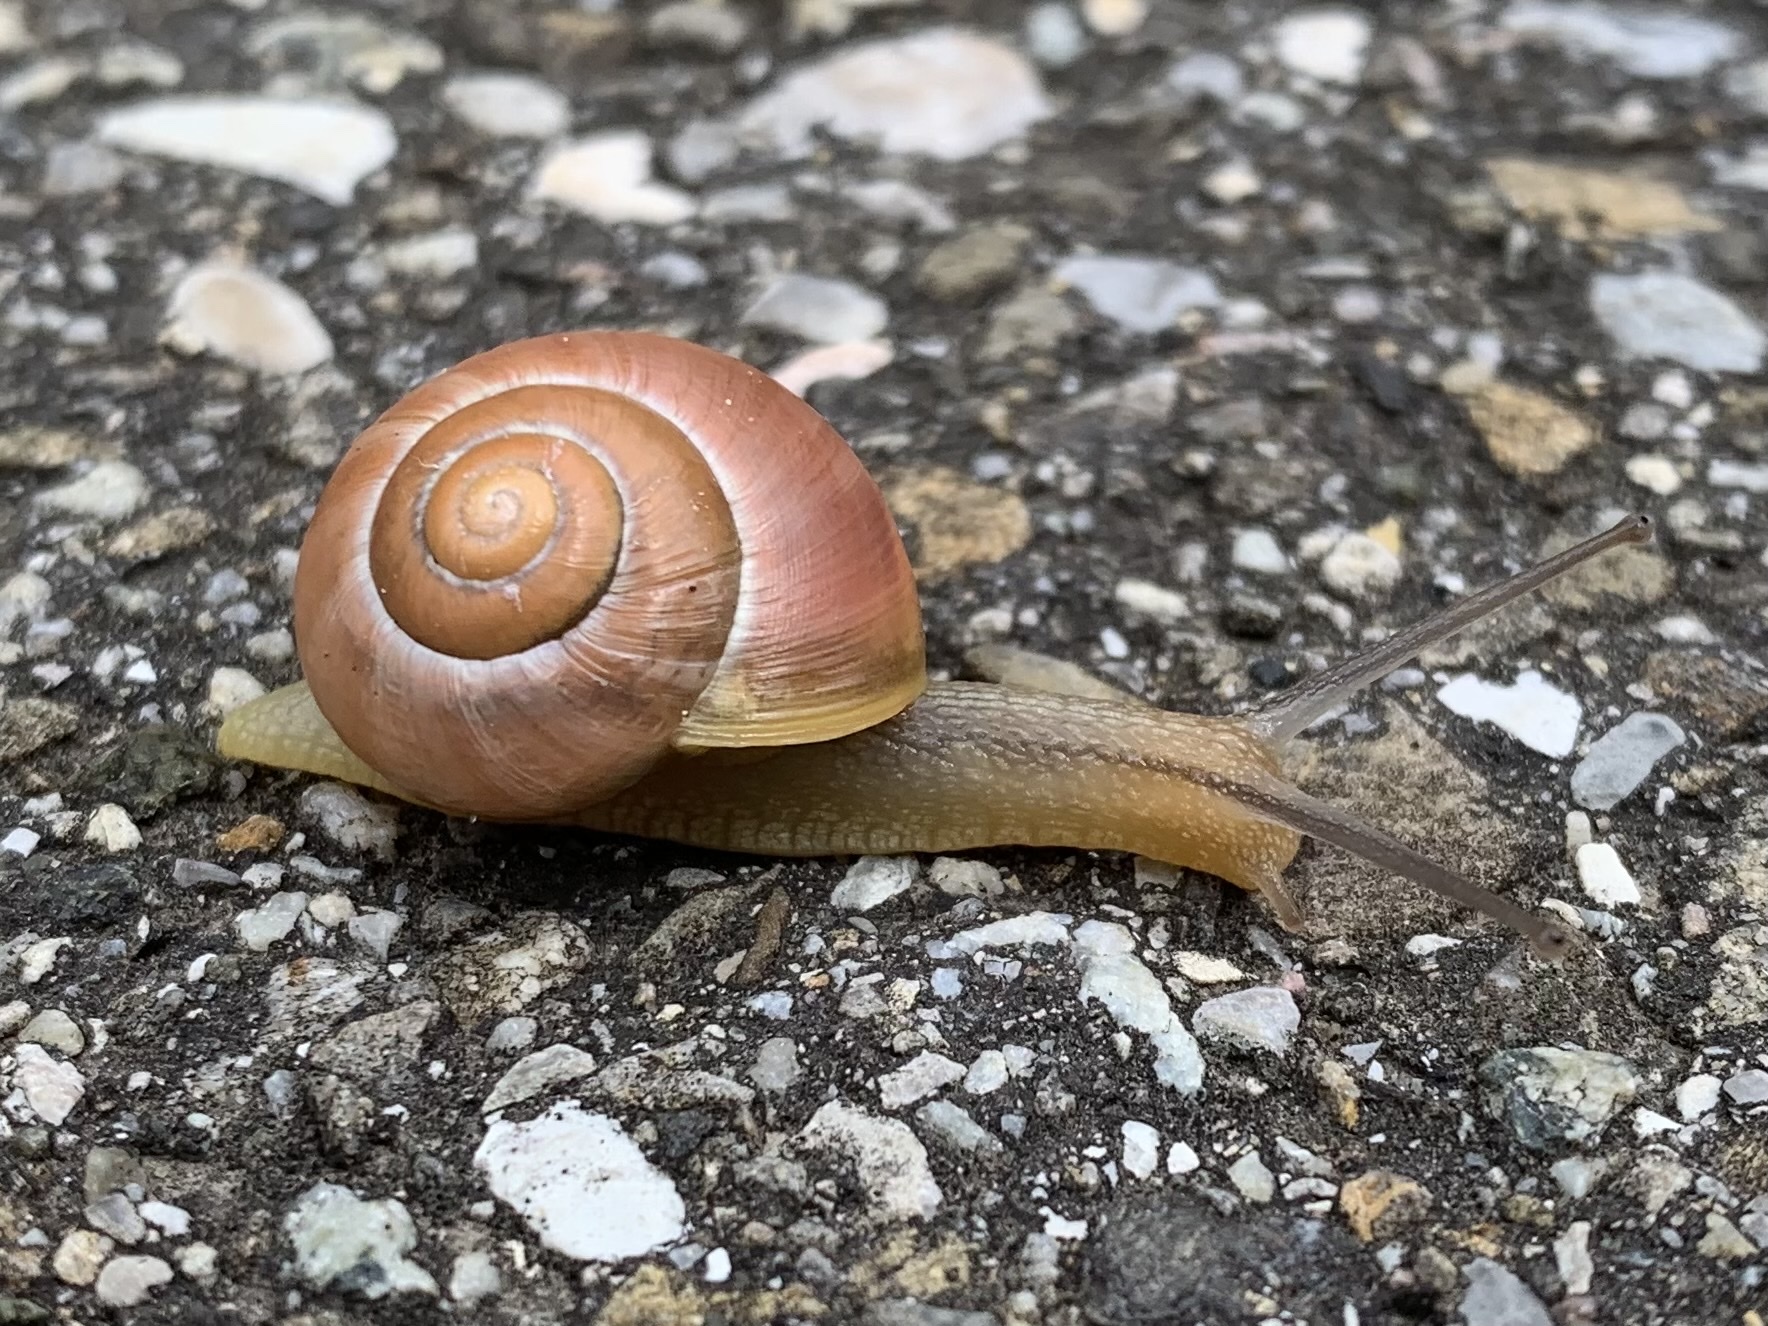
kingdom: Animalia
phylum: Mollusca
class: Gastropoda
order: Stylommatophora
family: Helicidae
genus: Cepaea
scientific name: Cepaea
